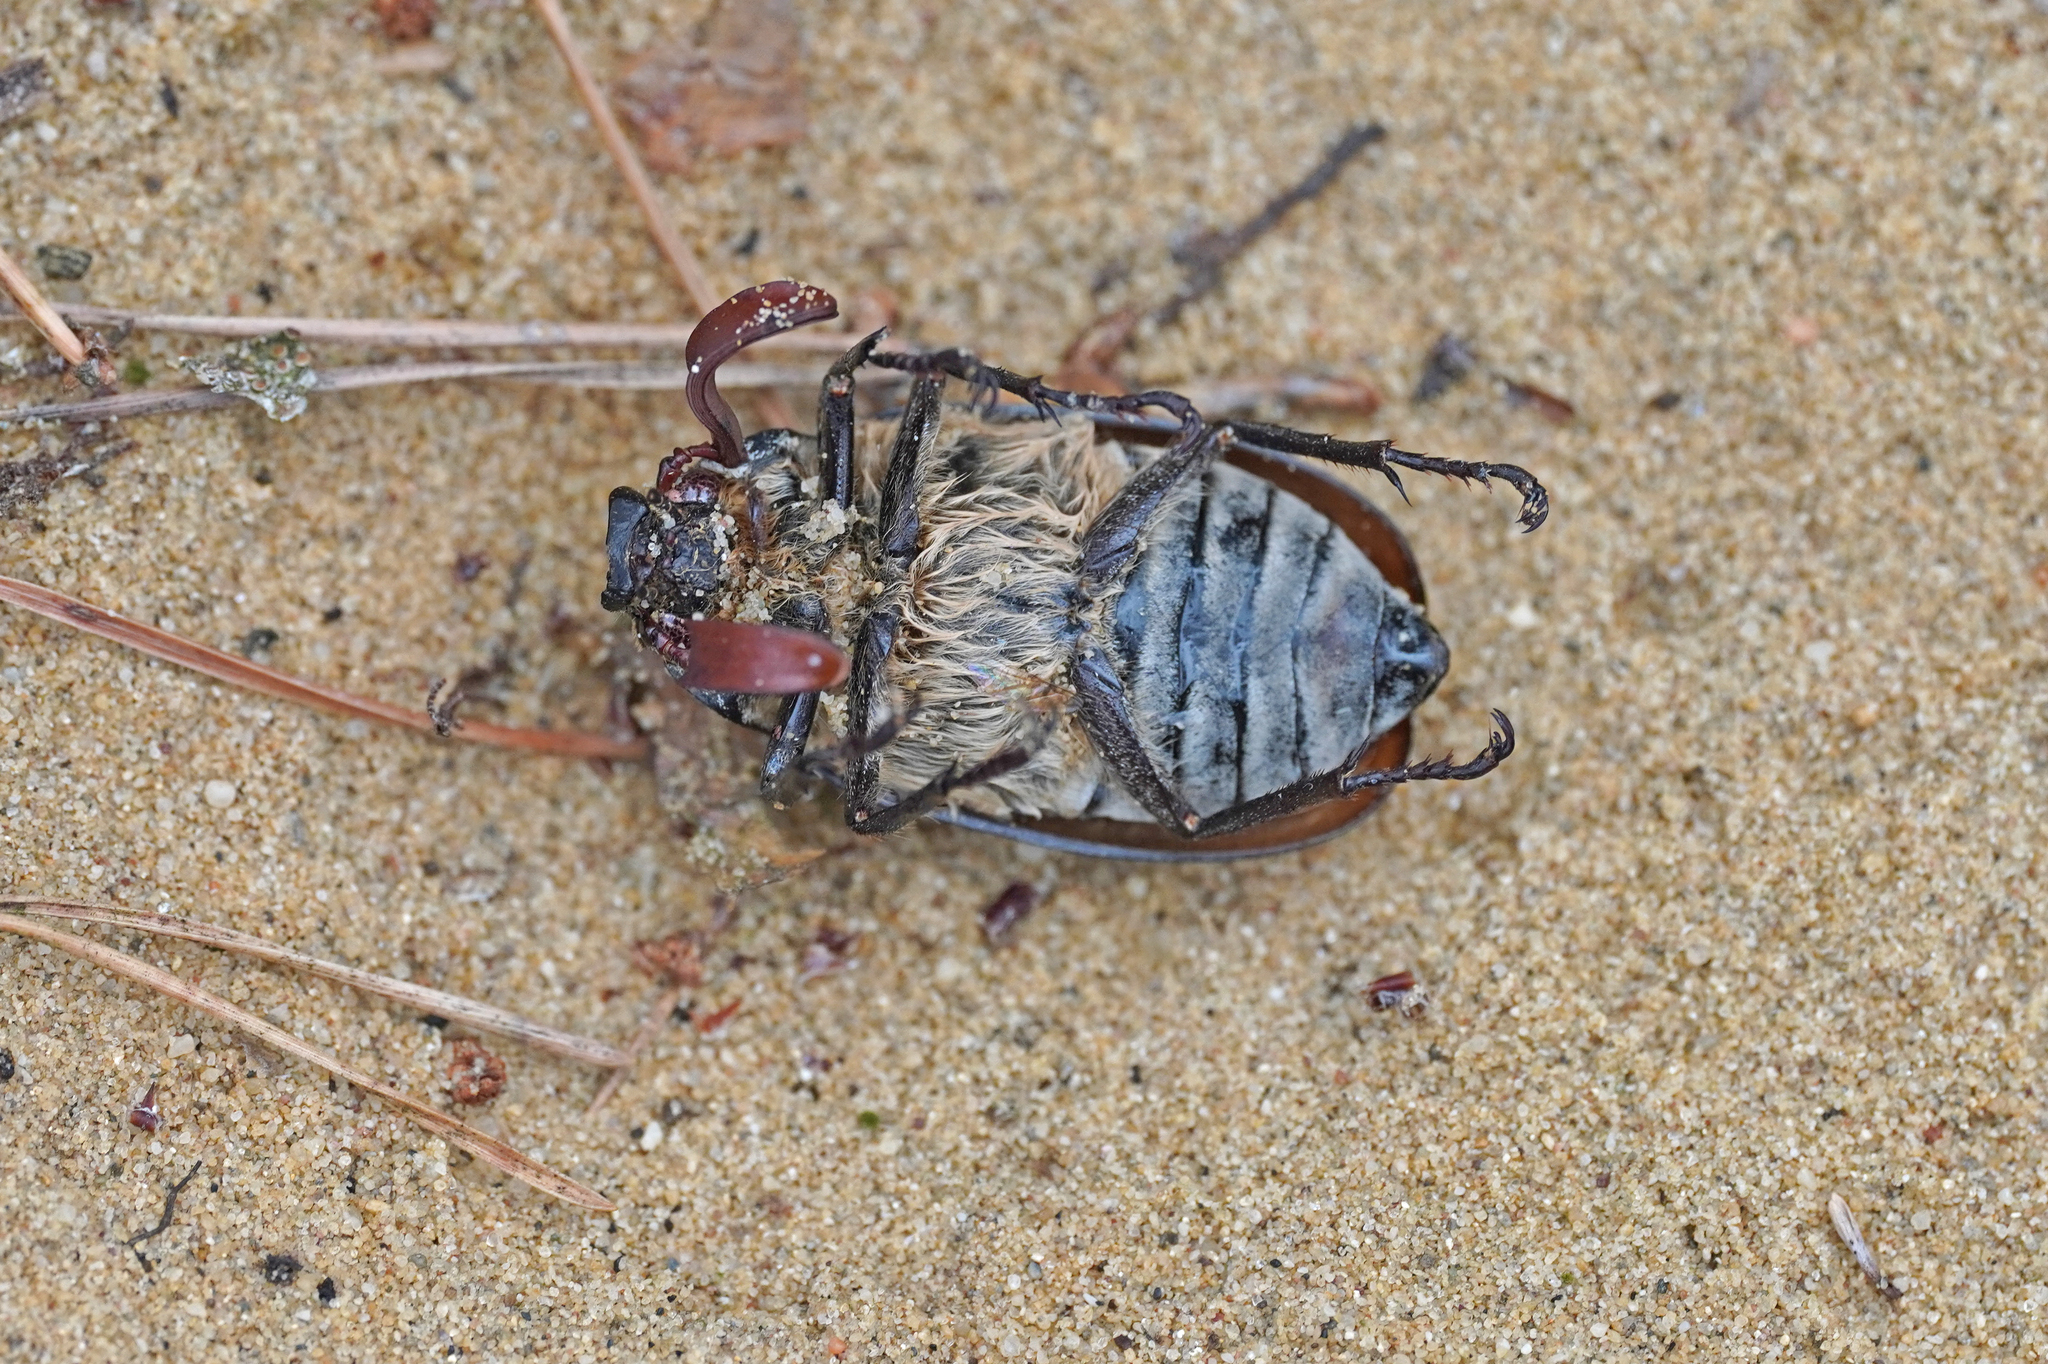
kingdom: Animalia
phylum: Arthropoda
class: Insecta
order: Coleoptera
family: Scarabaeidae
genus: Polyphylla
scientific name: Polyphylla fullo
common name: Pine chafer
